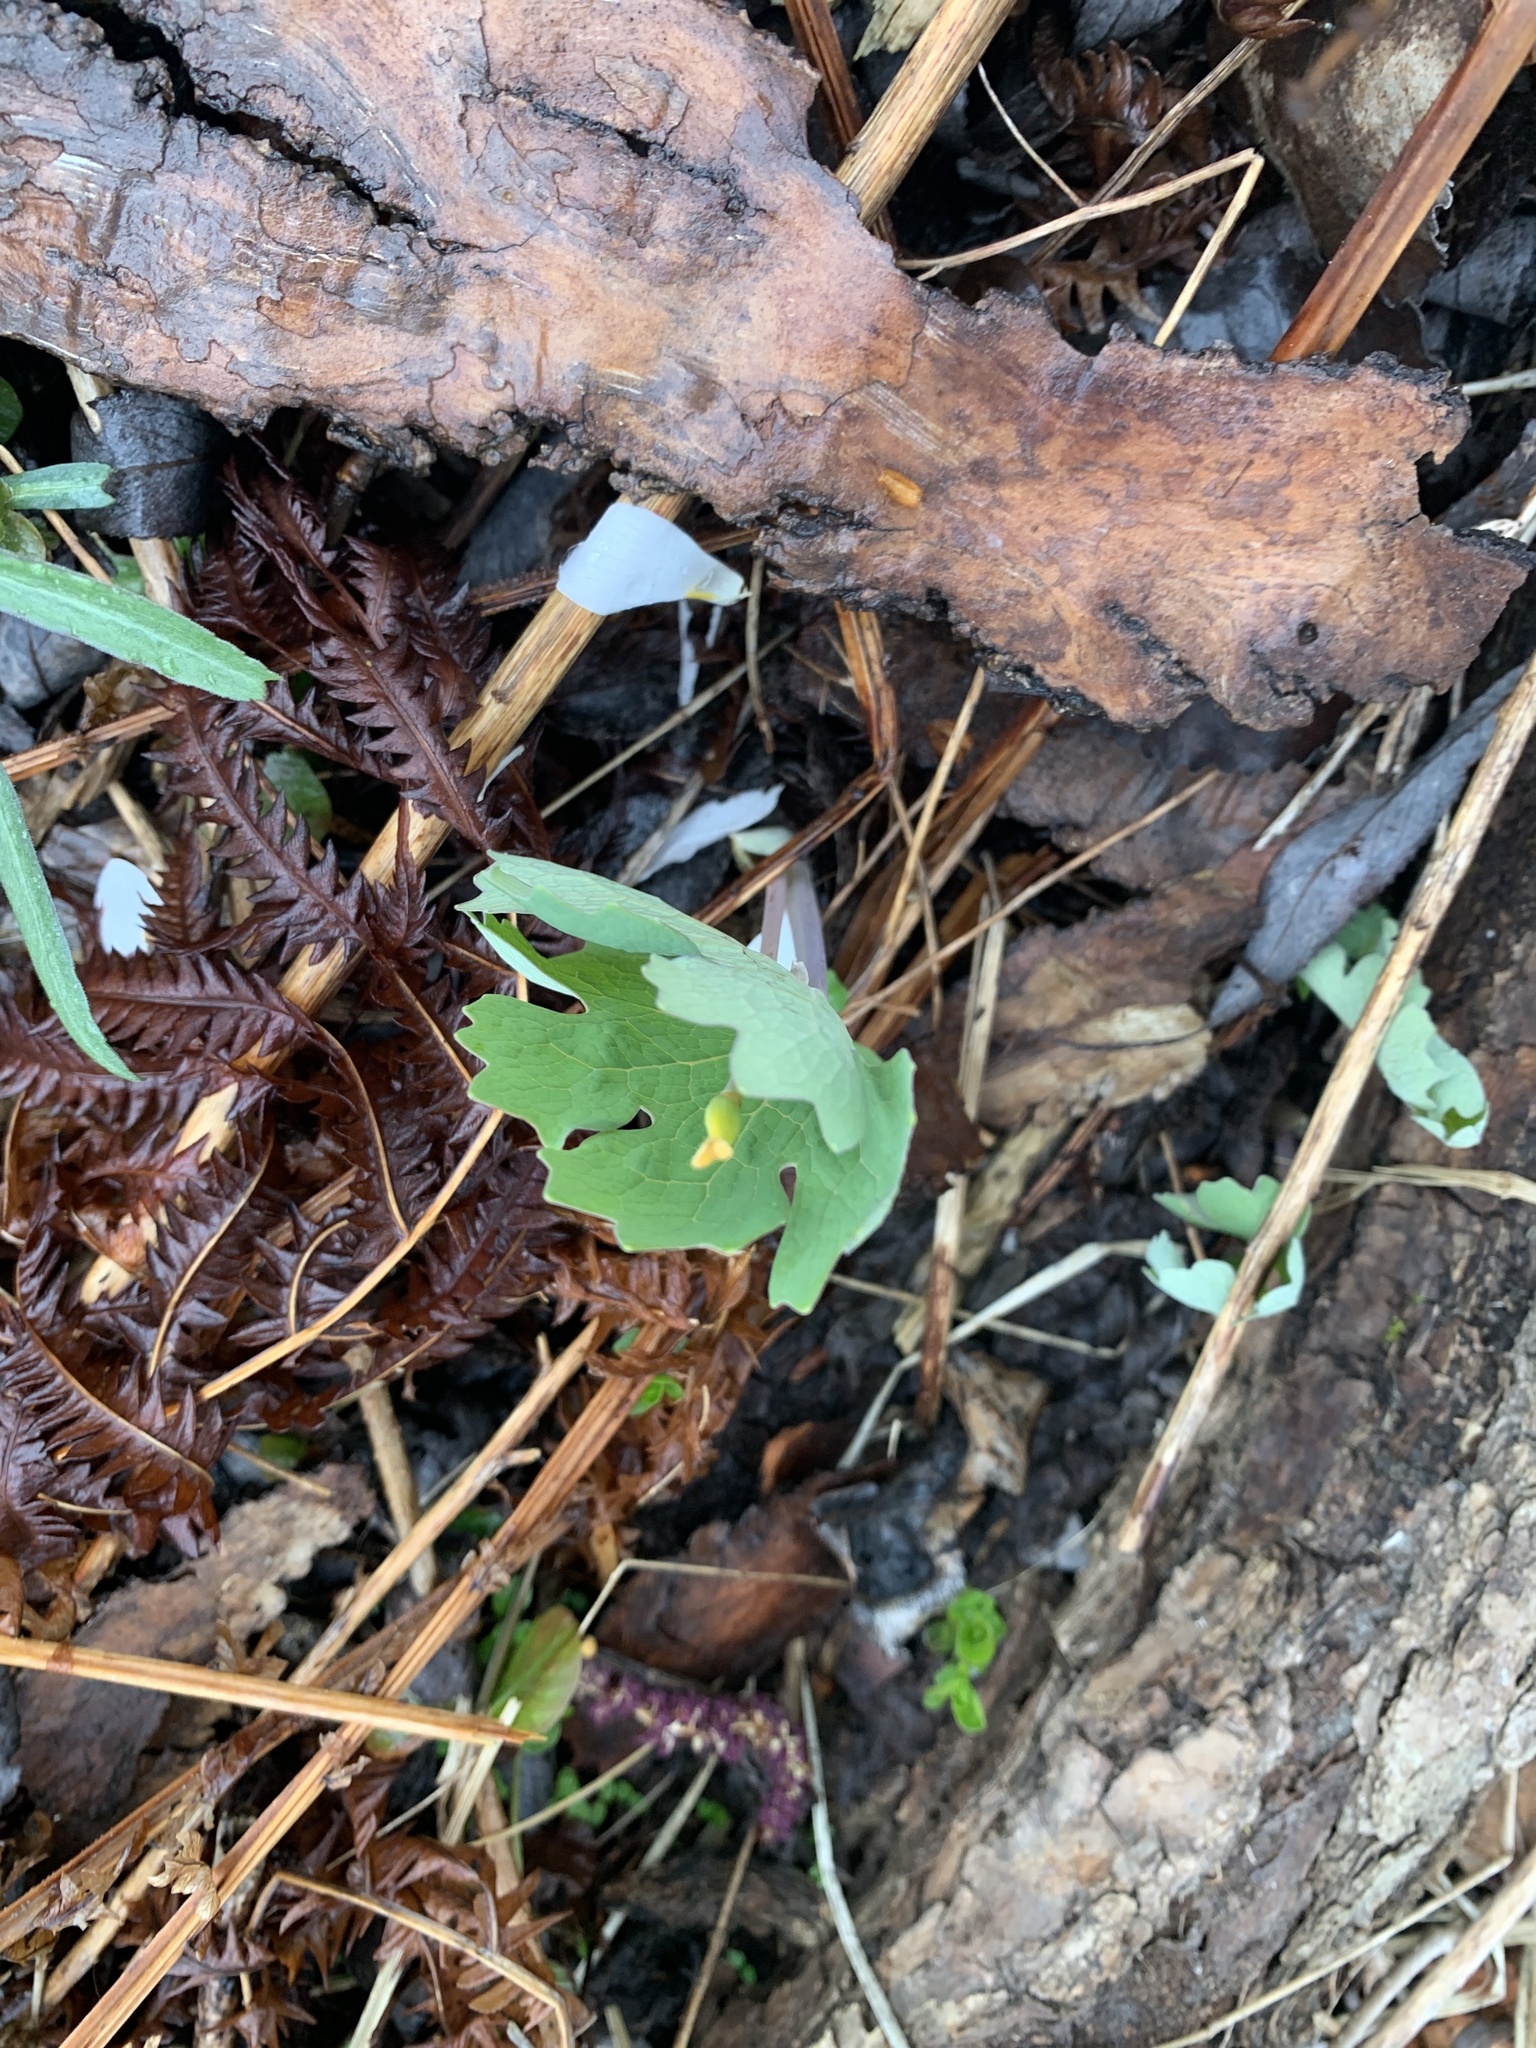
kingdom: Plantae
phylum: Tracheophyta
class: Magnoliopsida
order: Ranunculales
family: Papaveraceae
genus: Sanguinaria
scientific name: Sanguinaria canadensis
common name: Bloodroot
